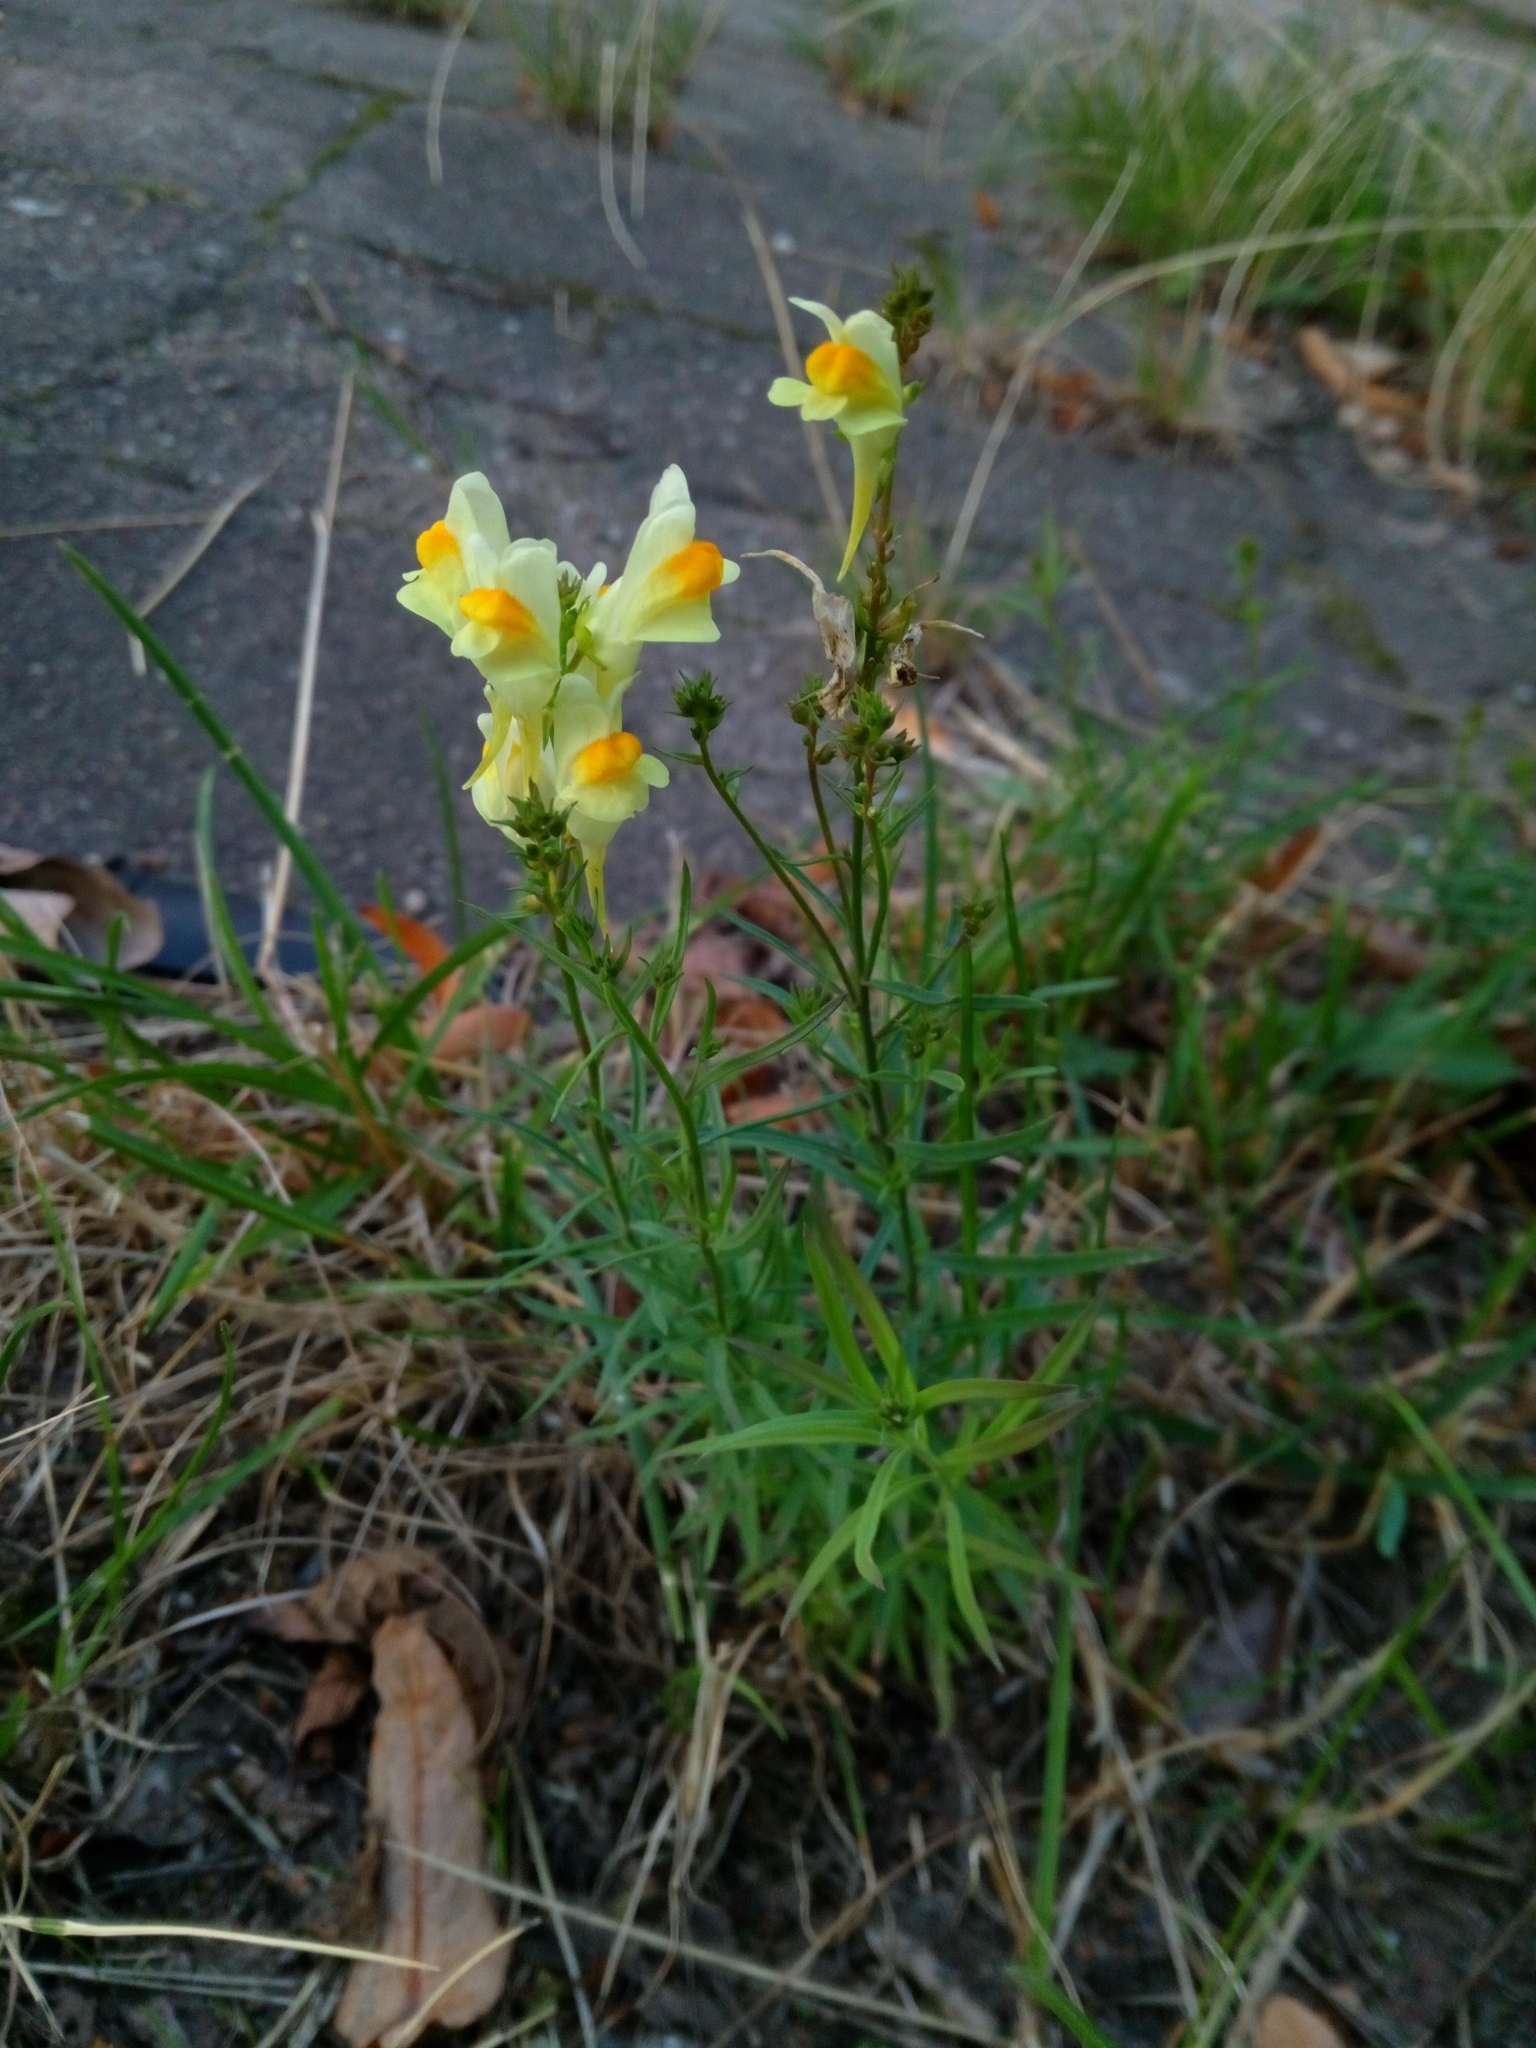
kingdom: Plantae
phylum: Tracheophyta
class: Magnoliopsida
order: Lamiales
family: Plantaginaceae
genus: Linaria
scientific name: Linaria vulgaris
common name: Butter and eggs
